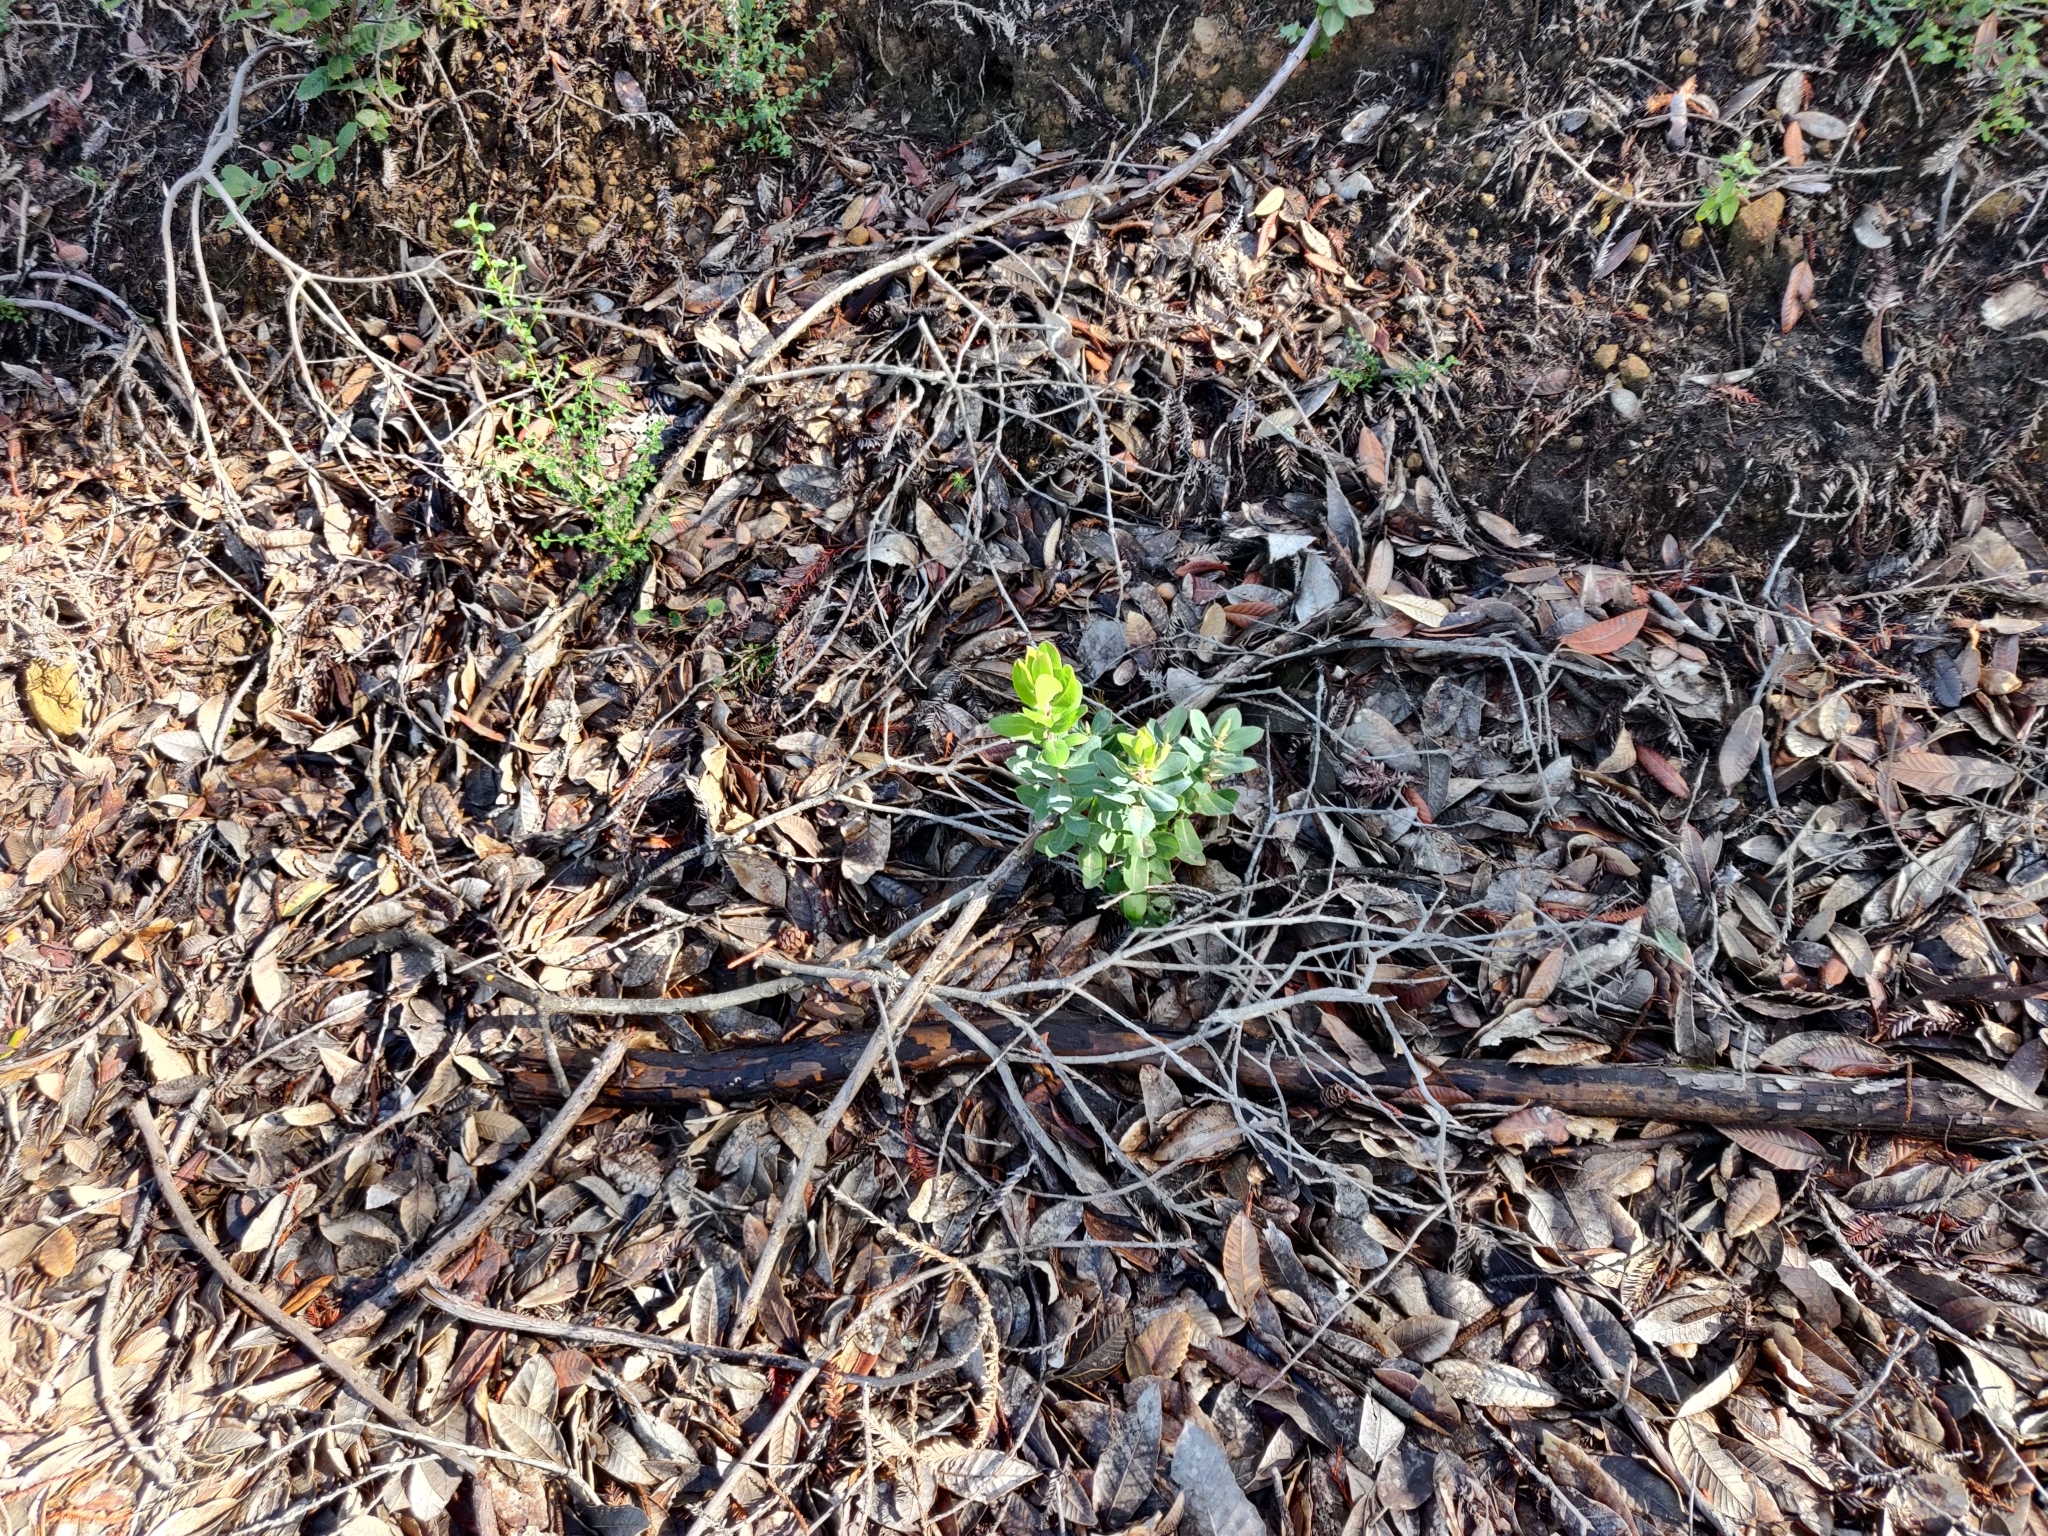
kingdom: Plantae
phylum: Tracheophyta
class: Magnoliopsida
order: Ericales
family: Ericaceae
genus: Arctostaphylos
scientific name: Arctostaphylos andersonii
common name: Santa cruz manzanita
